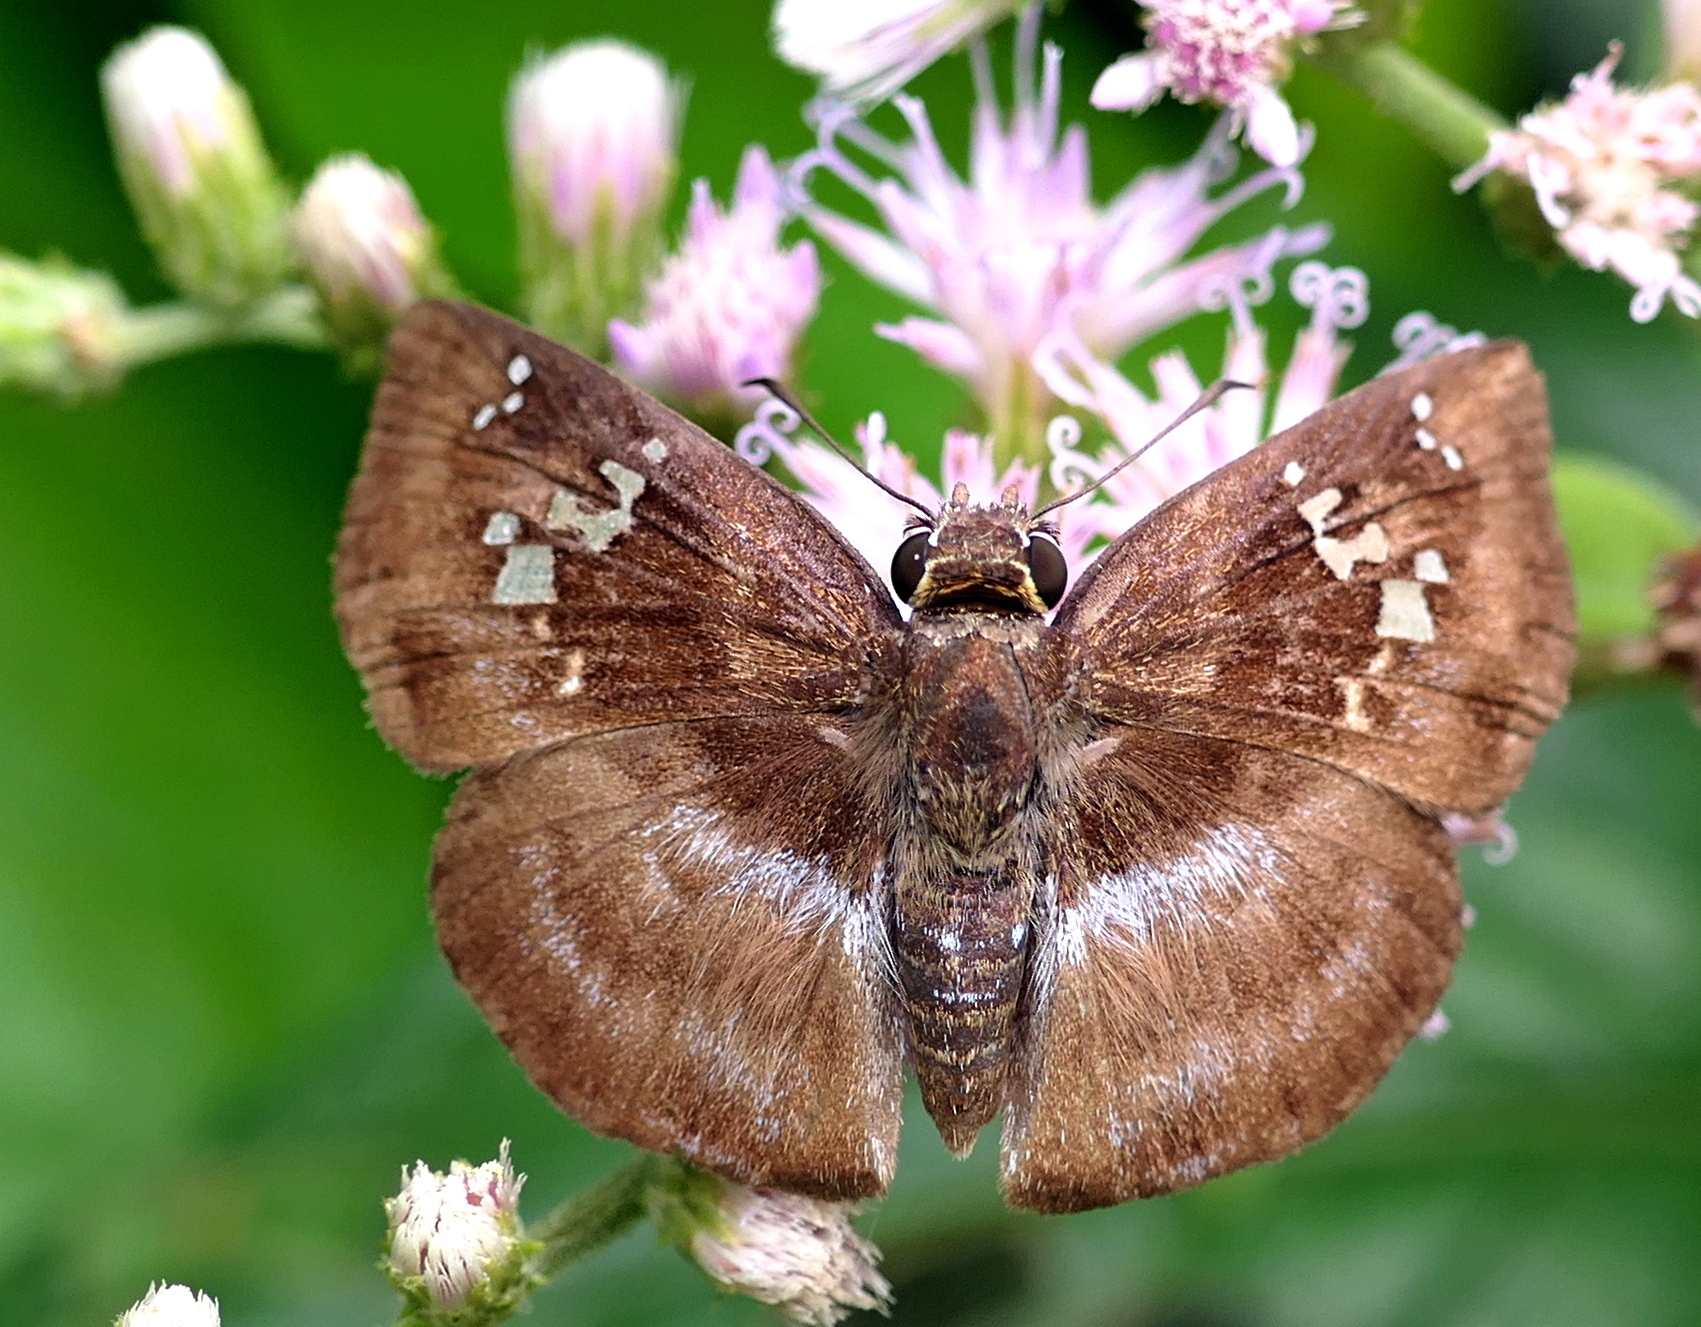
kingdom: Animalia
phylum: Arthropoda
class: Insecta
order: Lepidoptera
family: Hesperiidae
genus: Quadrus
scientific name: Quadrus cerialis
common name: Common blue-skipper
